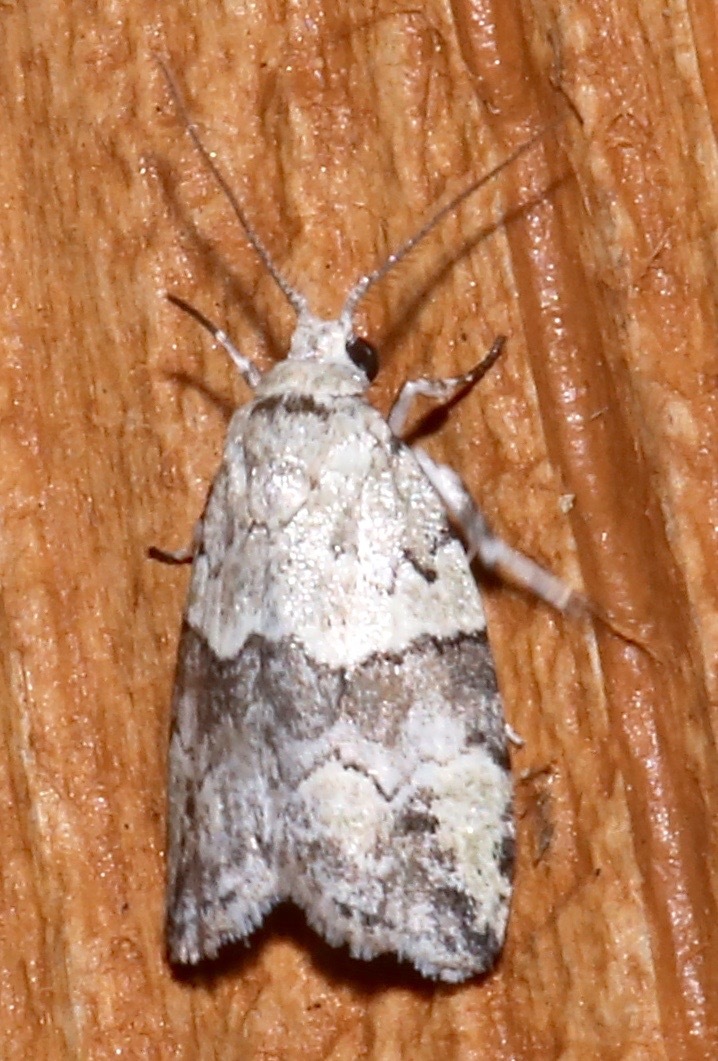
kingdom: Animalia
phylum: Arthropoda
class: Insecta
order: Lepidoptera
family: Nolidae
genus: Afrida
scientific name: Afrida ydatodes
